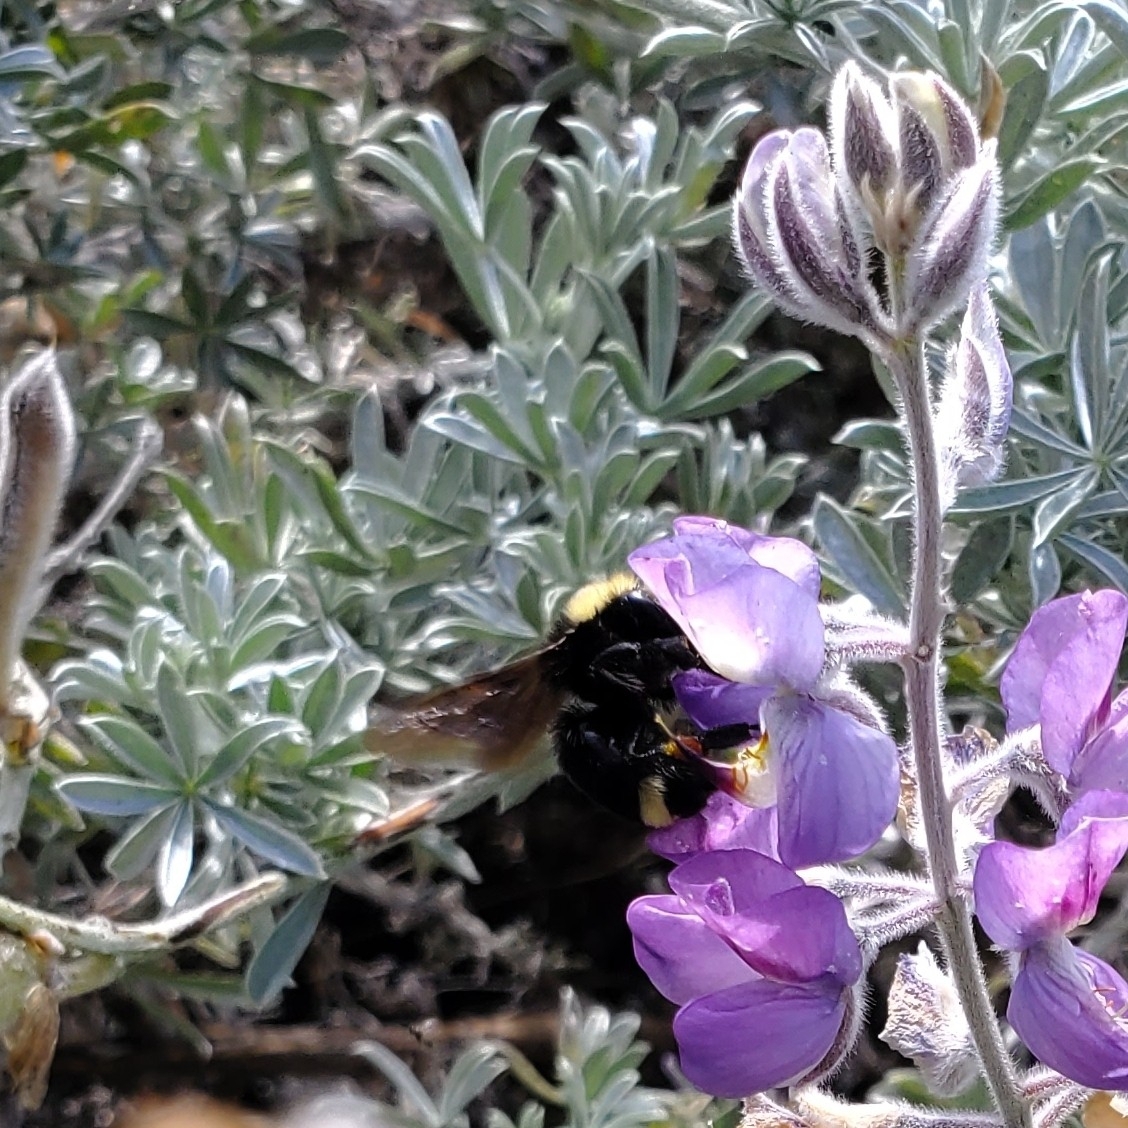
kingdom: Animalia
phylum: Arthropoda
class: Insecta
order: Hymenoptera
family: Apidae
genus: Pyrobombus
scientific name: Pyrobombus
